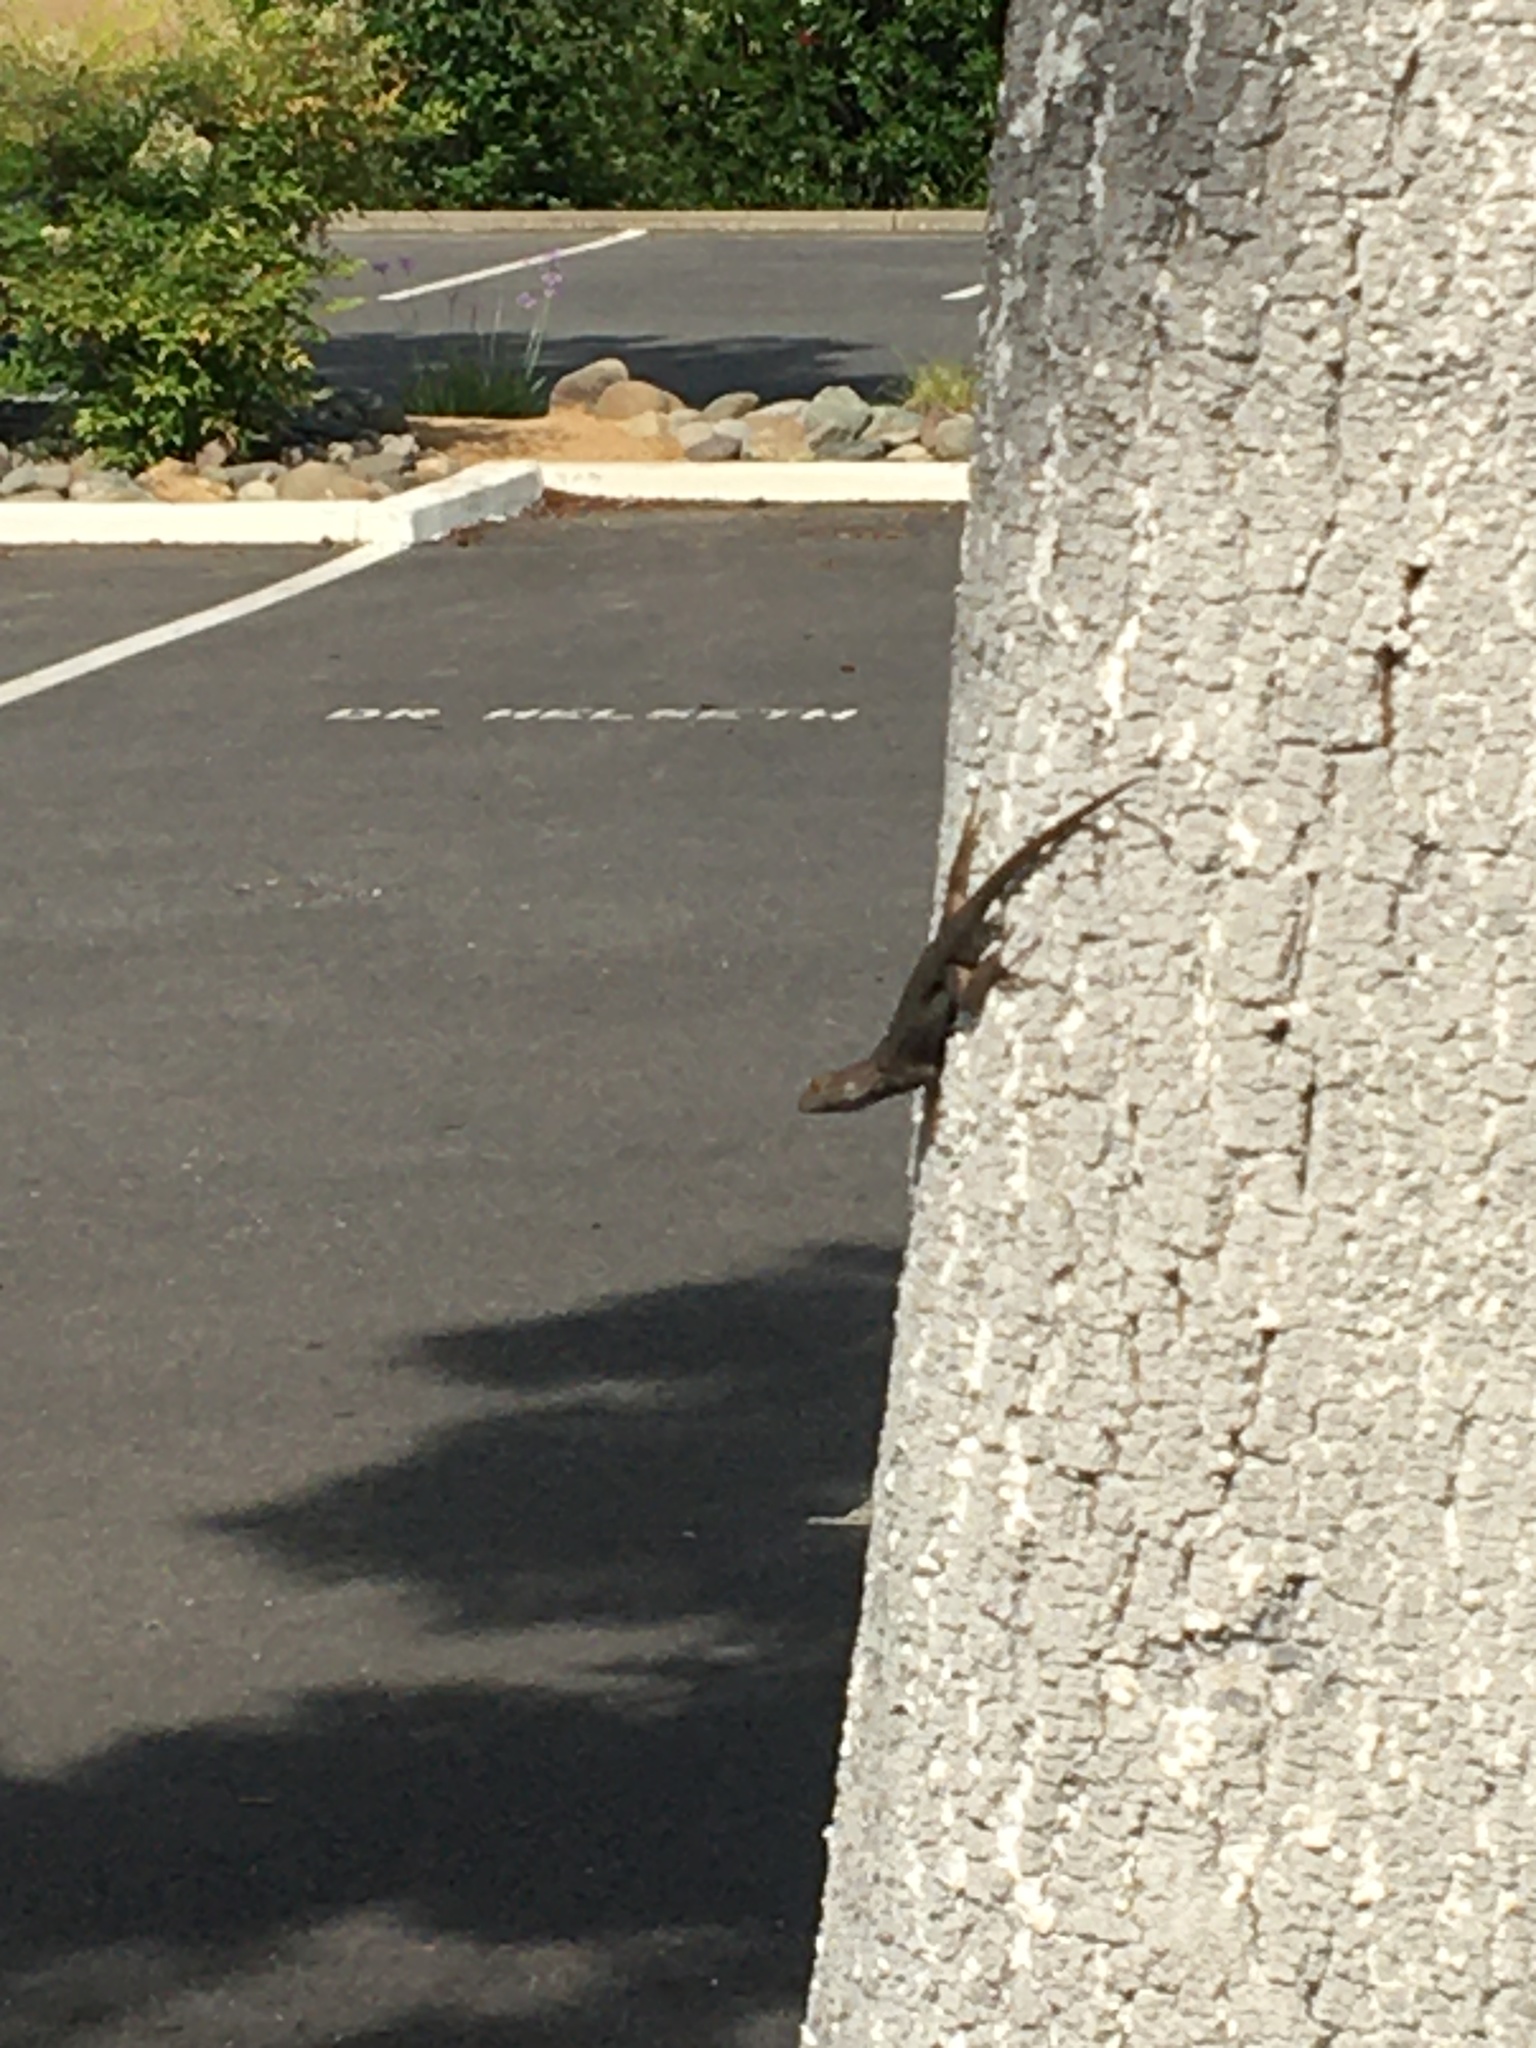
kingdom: Animalia
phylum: Chordata
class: Squamata
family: Phrynosomatidae
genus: Sceloporus
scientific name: Sceloporus occidentalis
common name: Western fence lizard
